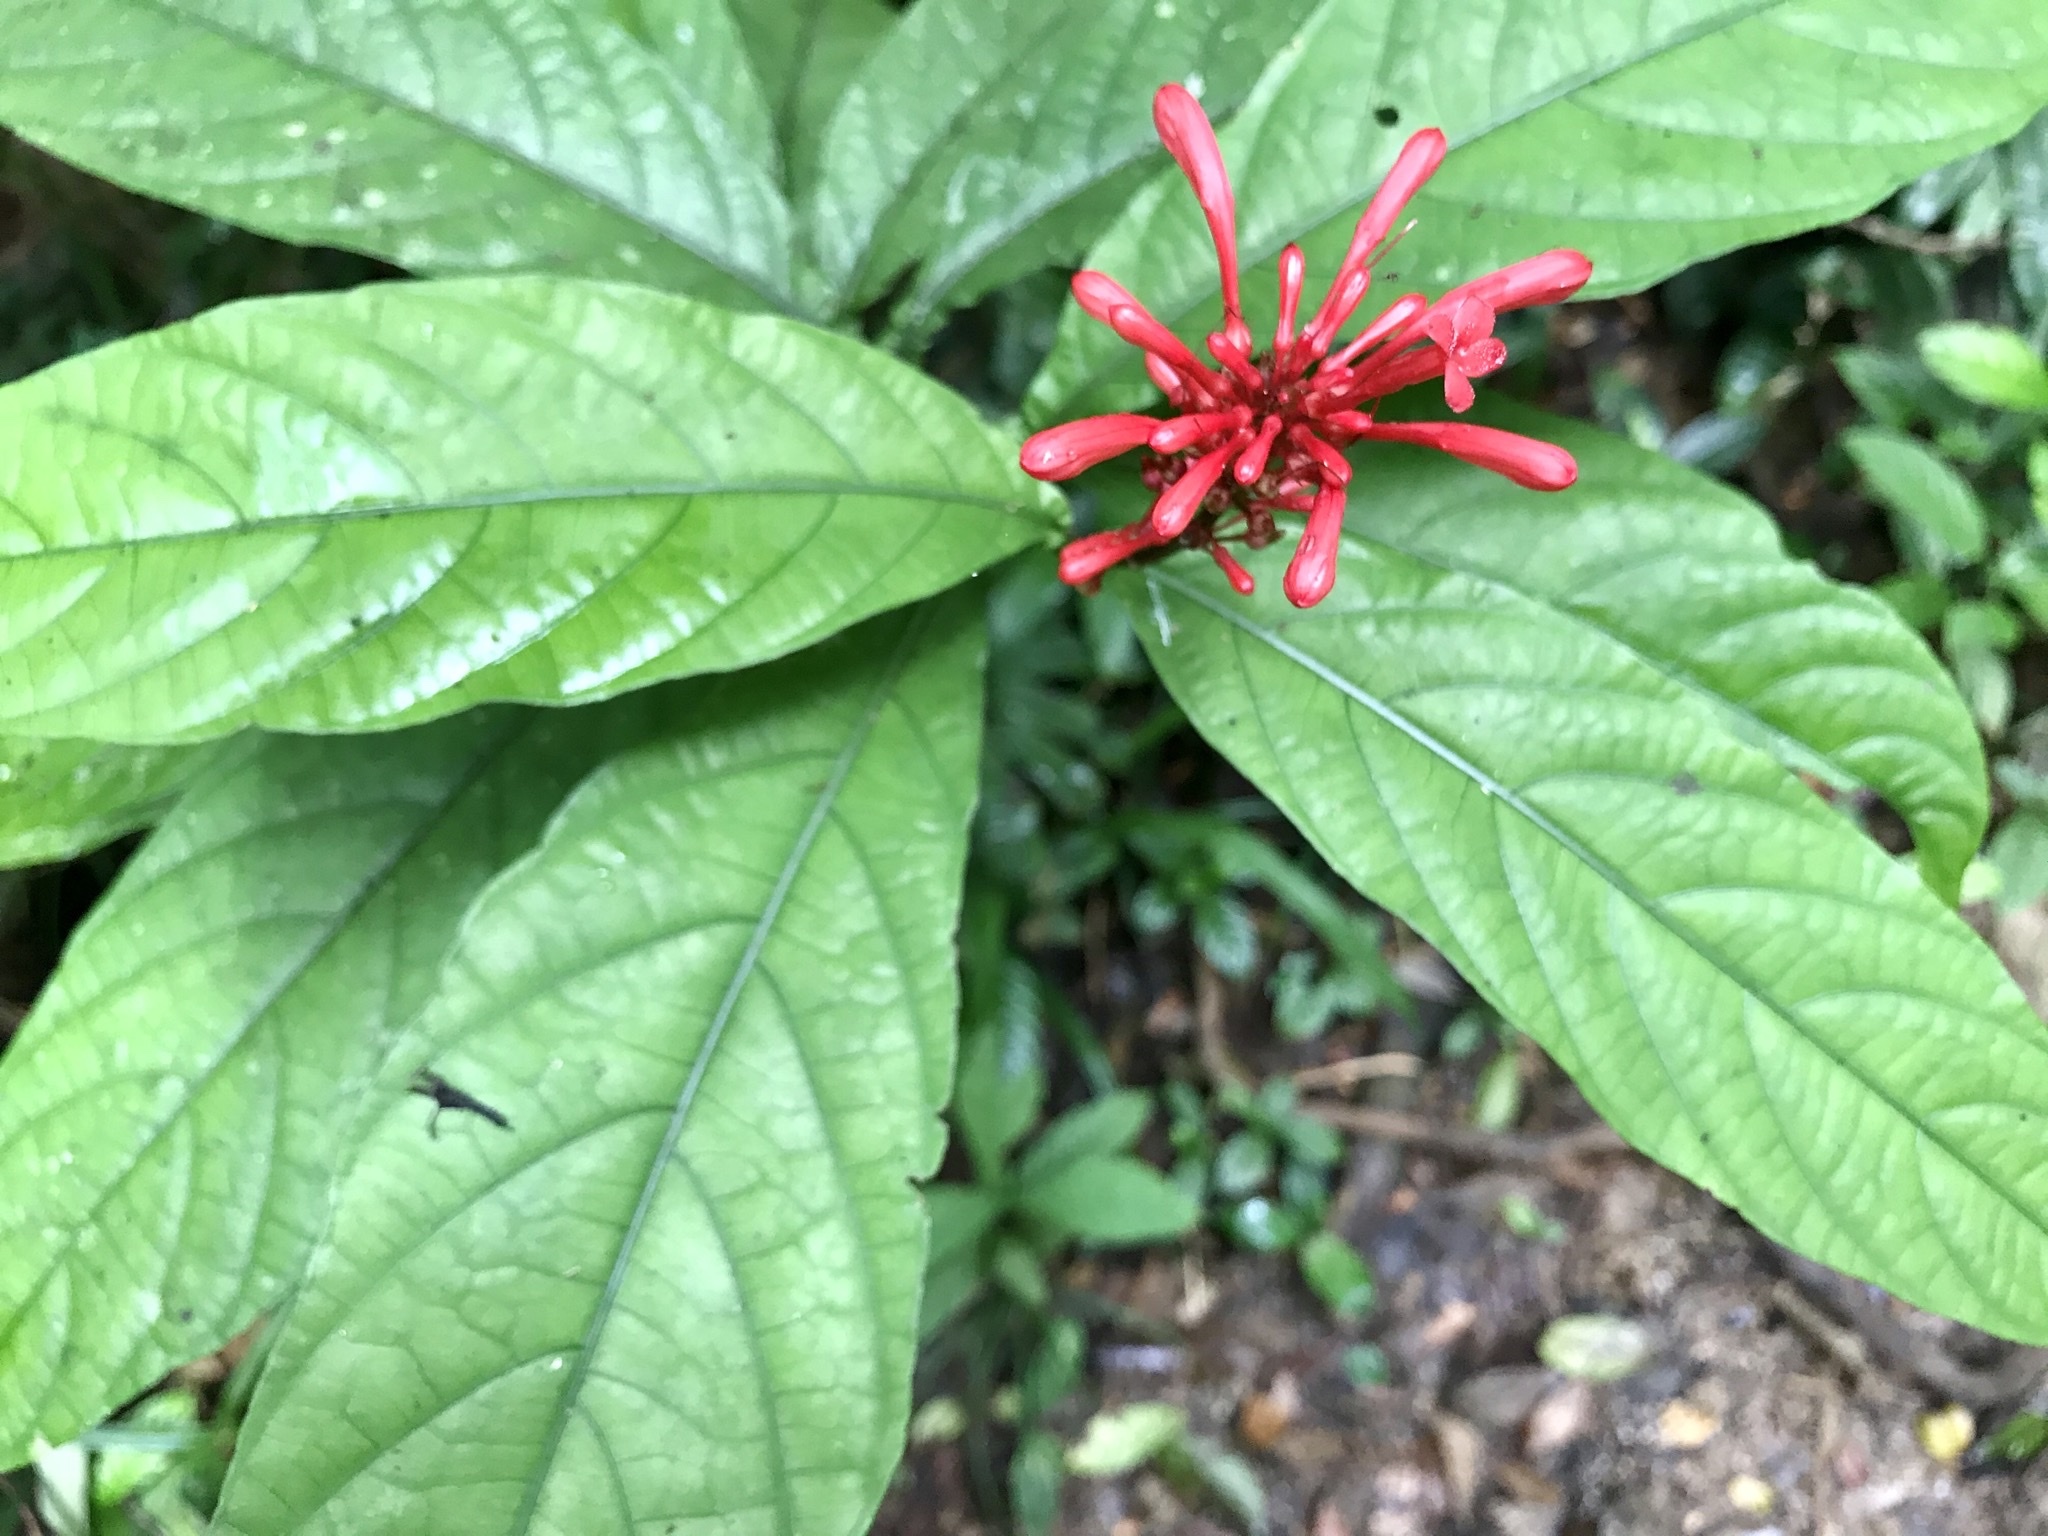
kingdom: Plantae
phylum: Tracheophyta
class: Magnoliopsida
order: Lamiales
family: Acanthaceae
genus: Odontonema
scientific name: Odontonema tubaeforme
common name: Firespike
